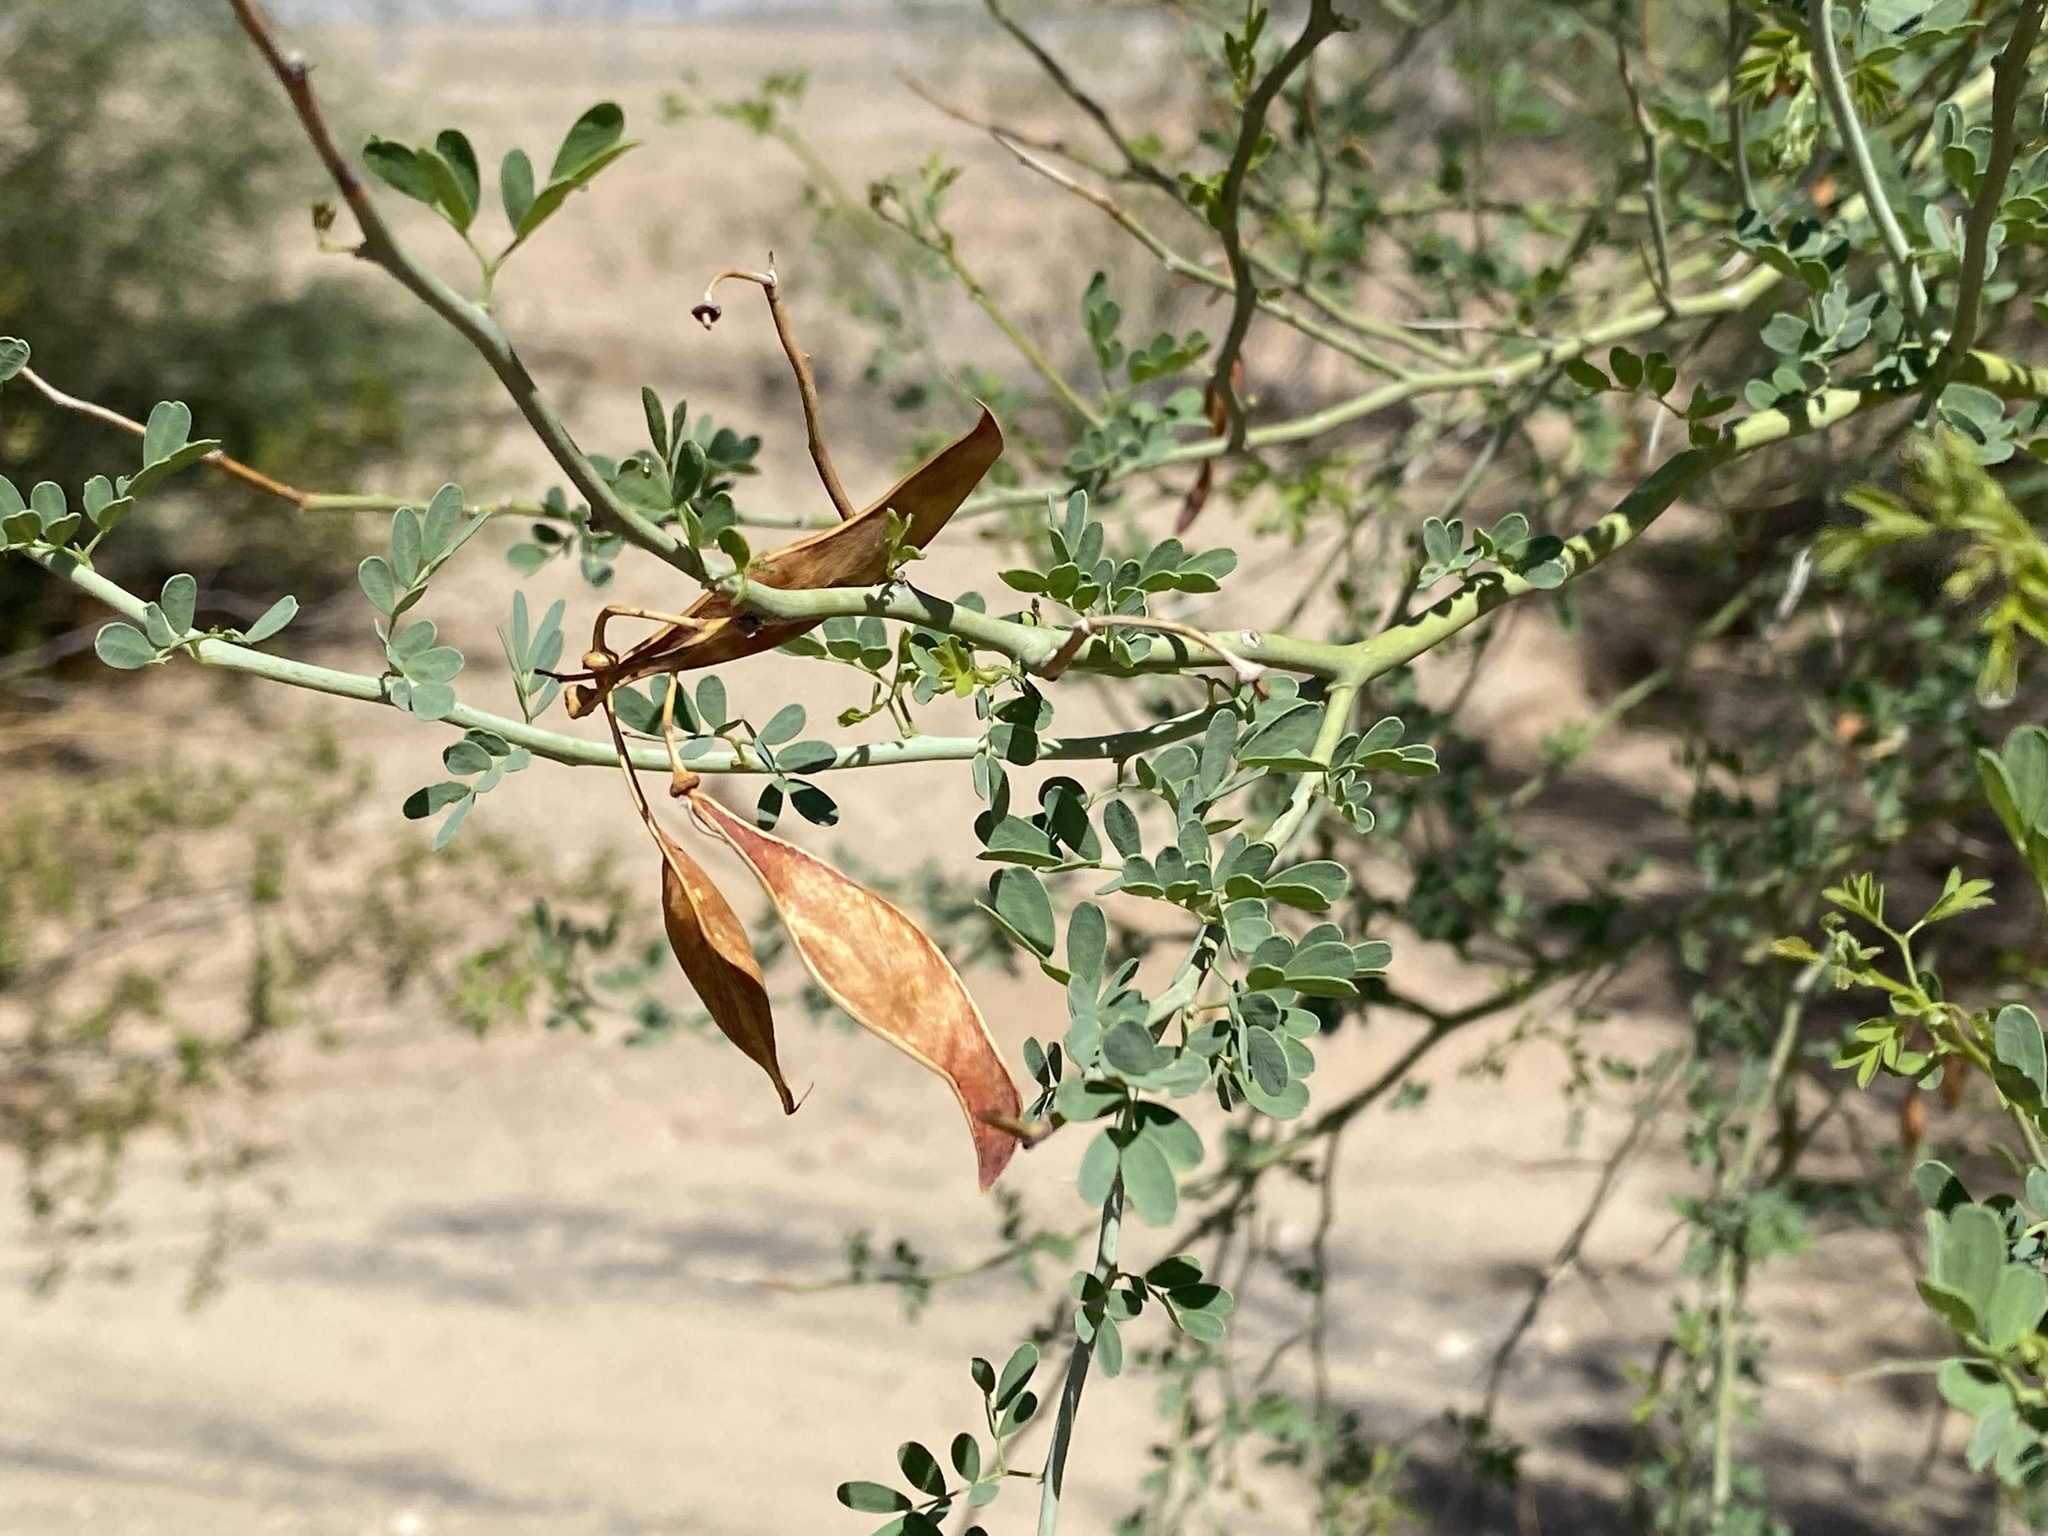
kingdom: Plantae
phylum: Tracheophyta
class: Magnoliopsida
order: Fabales
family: Fabaceae
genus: Parkinsonia
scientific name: Parkinsonia florida
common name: Blue paloverde
